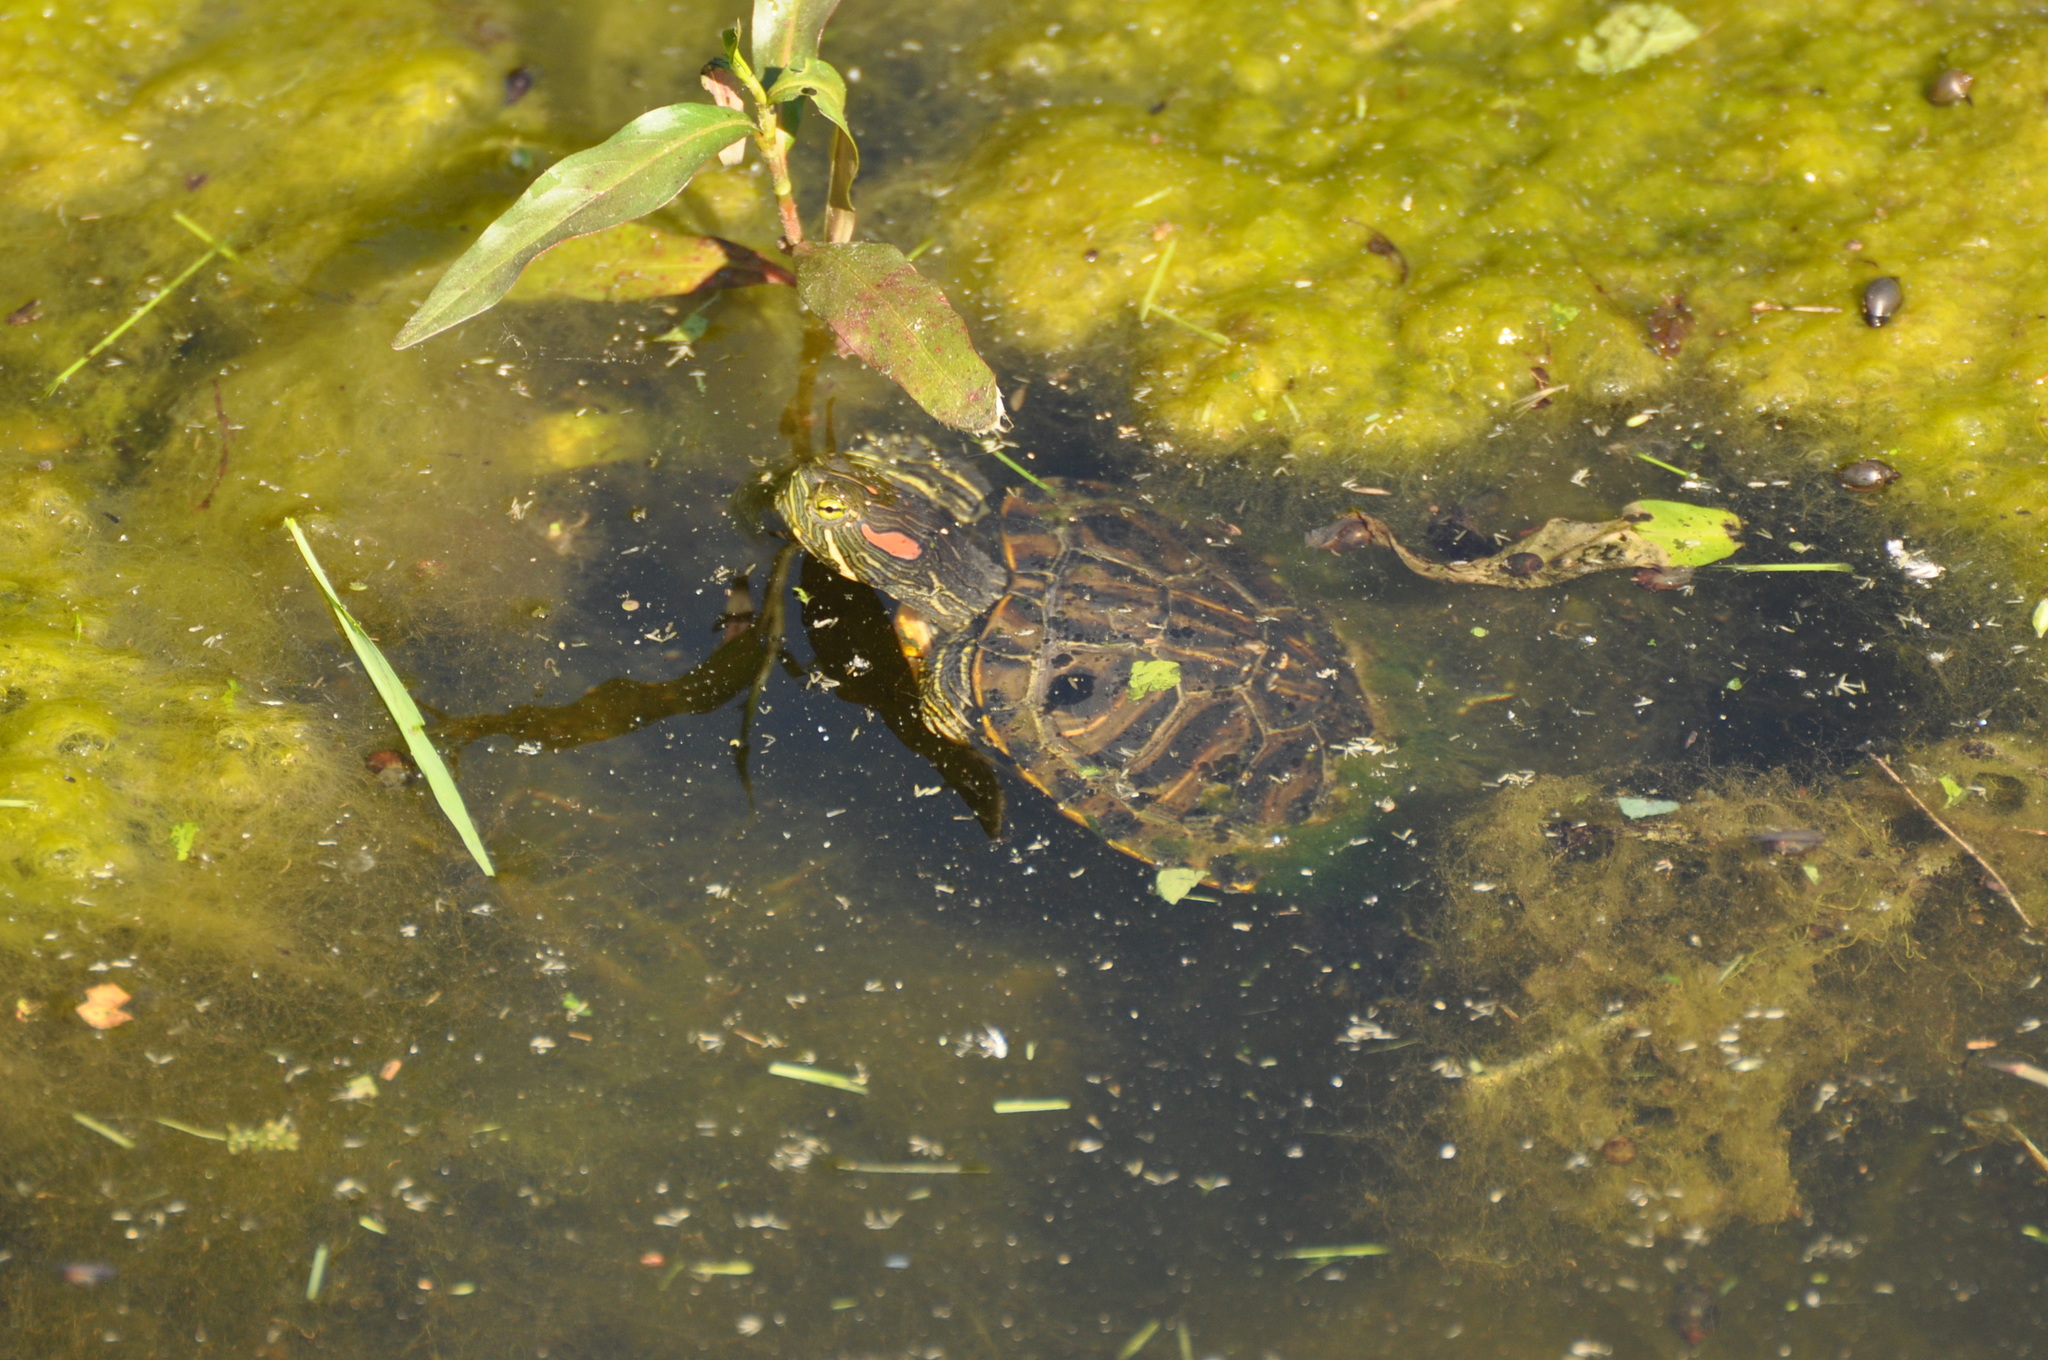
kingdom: Animalia
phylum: Chordata
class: Testudines
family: Emydidae
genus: Trachemys
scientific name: Trachemys scripta
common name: Slider
